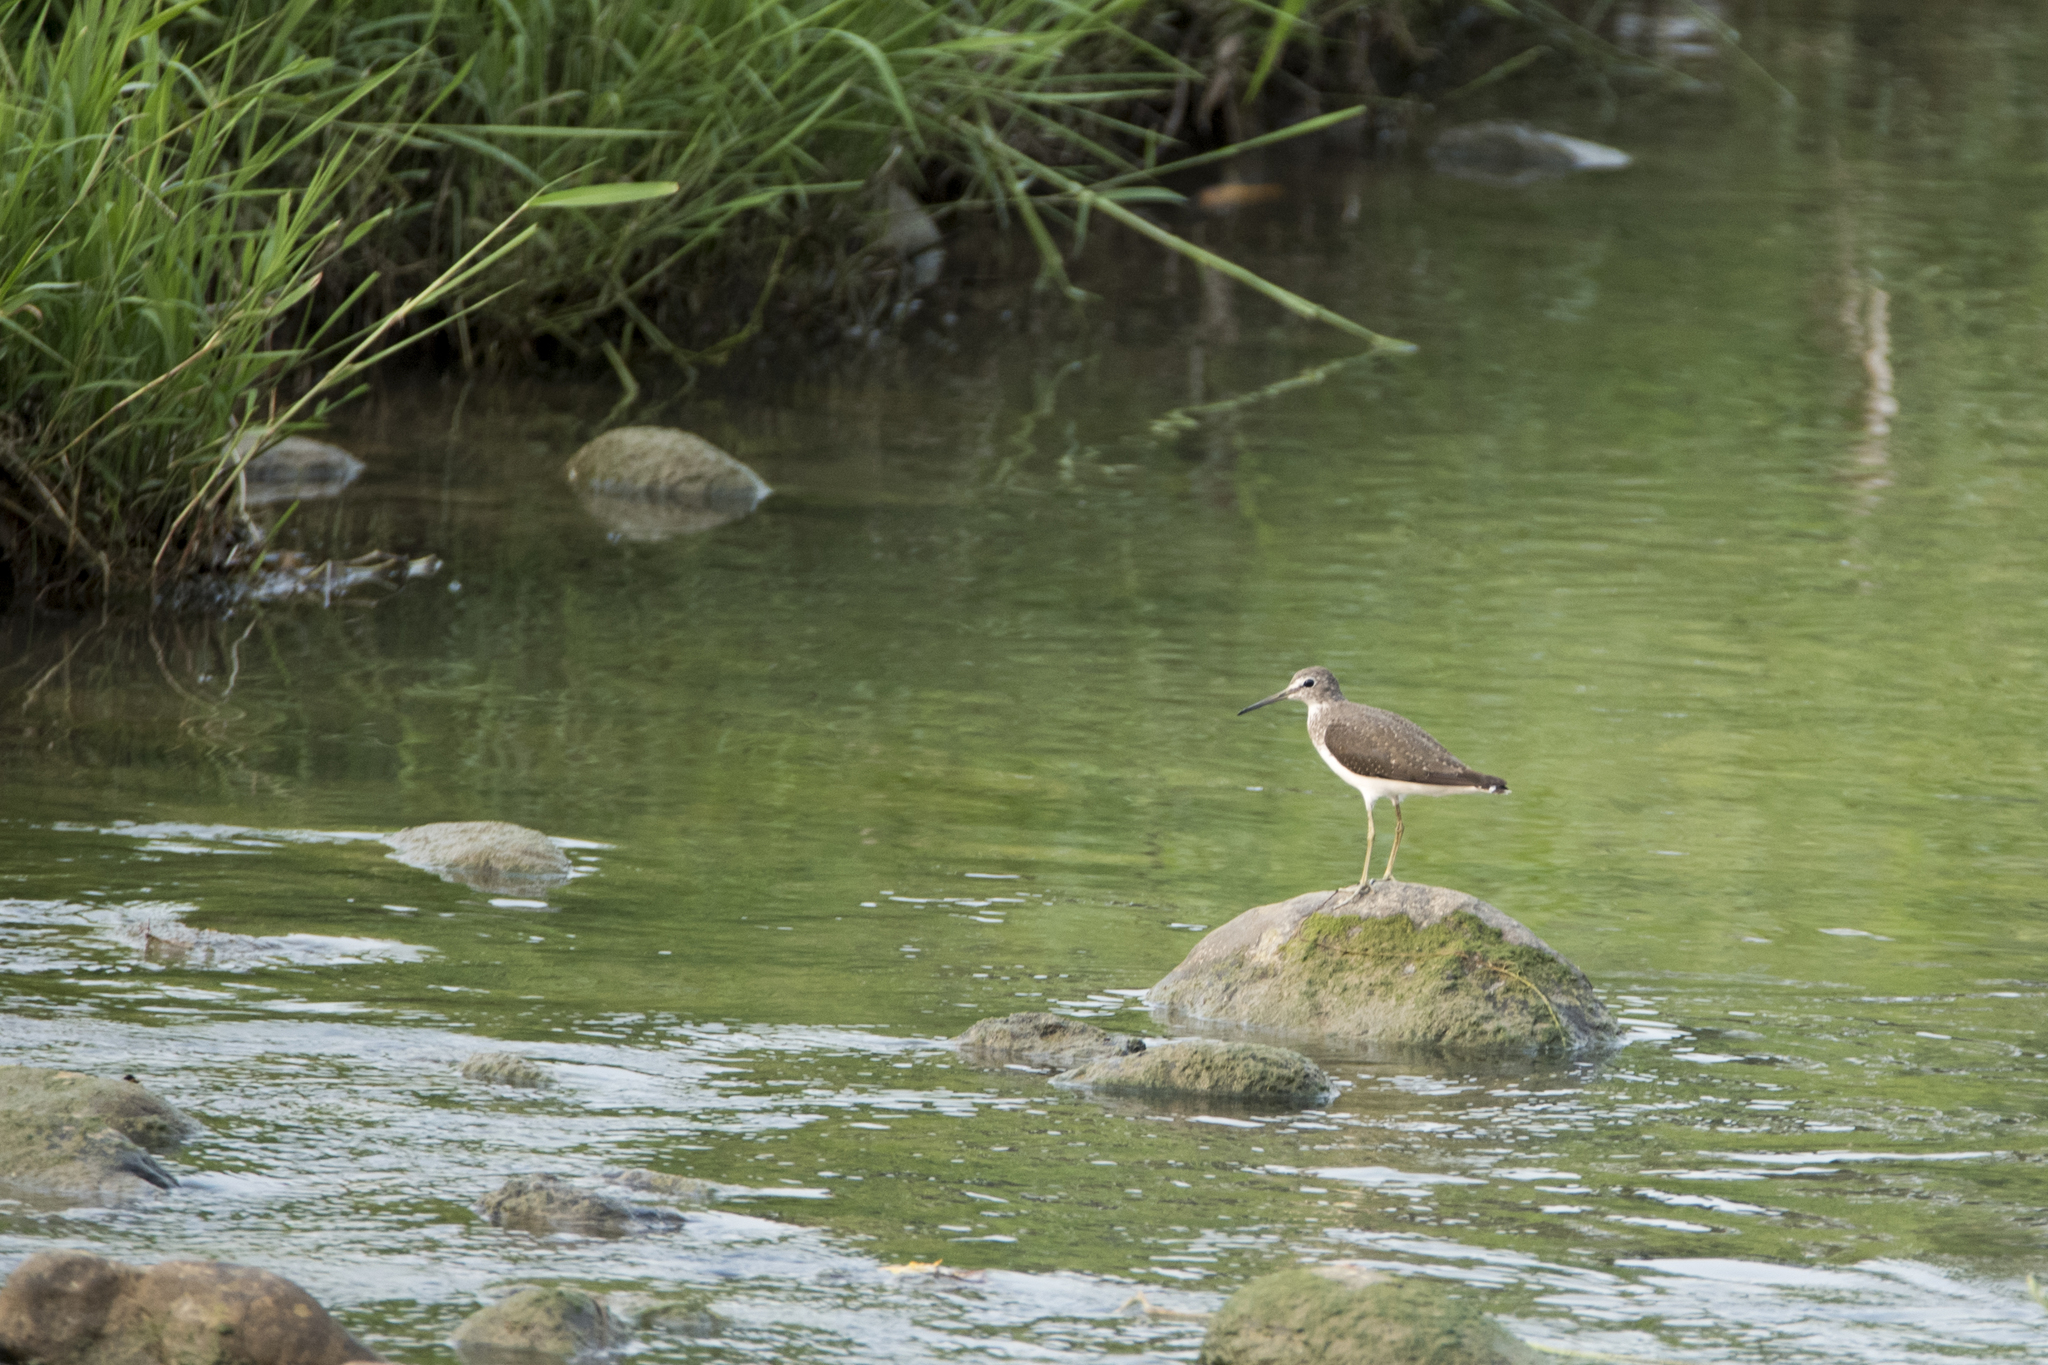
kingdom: Animalia
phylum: Chordata
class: Aves
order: Charadriiformes
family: Scolopacidae
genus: Actitis
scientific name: Actitis hypoleucos
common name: Common sandpiper
